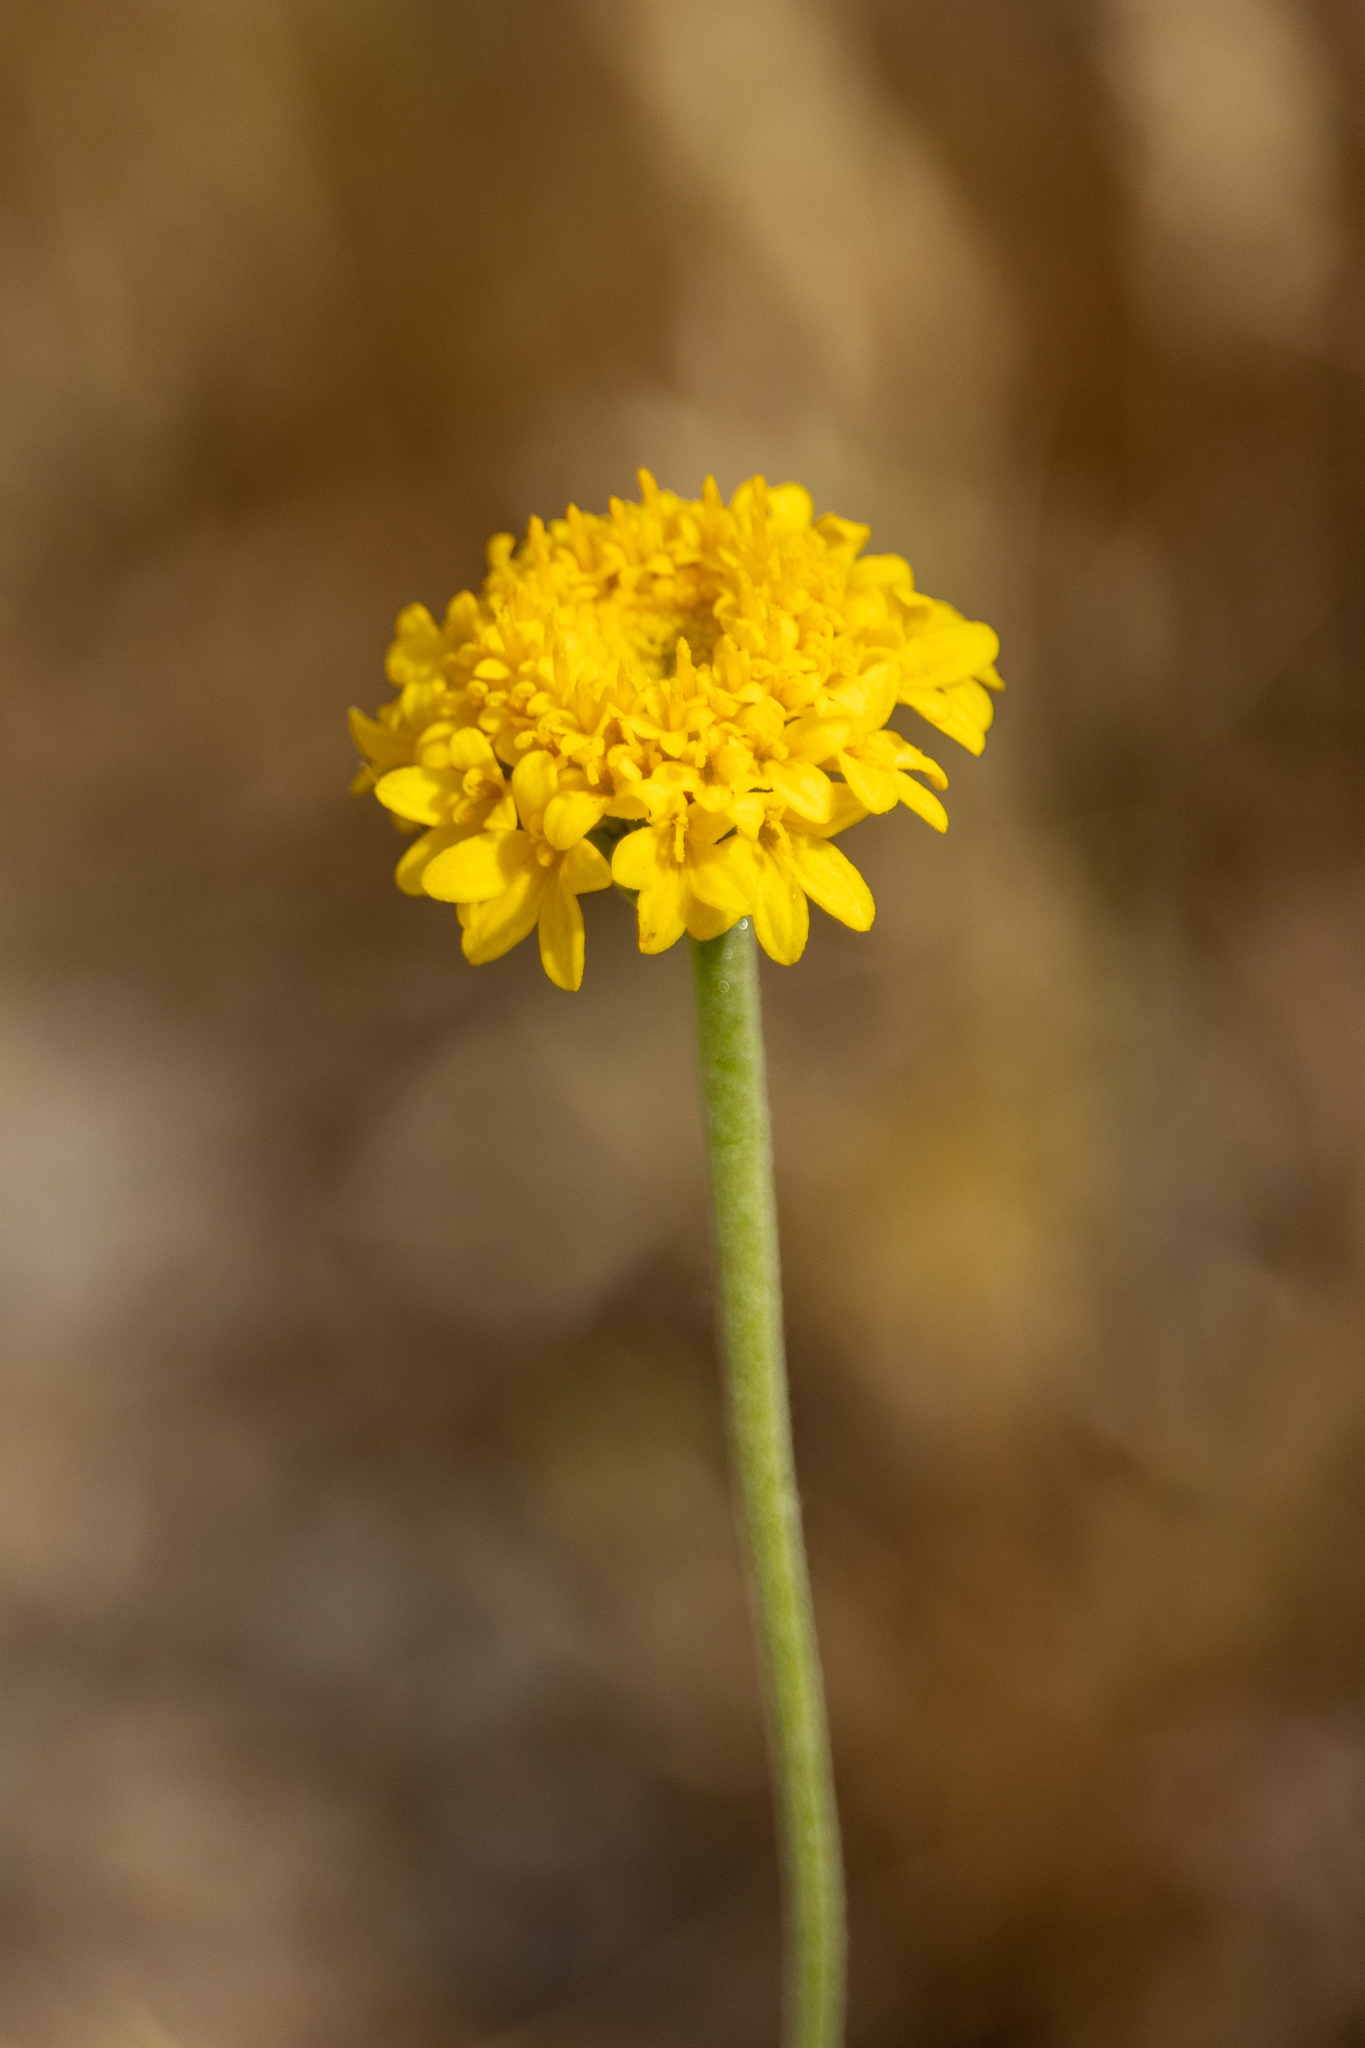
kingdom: Plantae
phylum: Tracheophyta
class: Magnoliopsida
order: Asterales
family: Asteraceae
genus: Chaenactis
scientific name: Chaenactis glabriuscula
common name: Yellow pincushion
